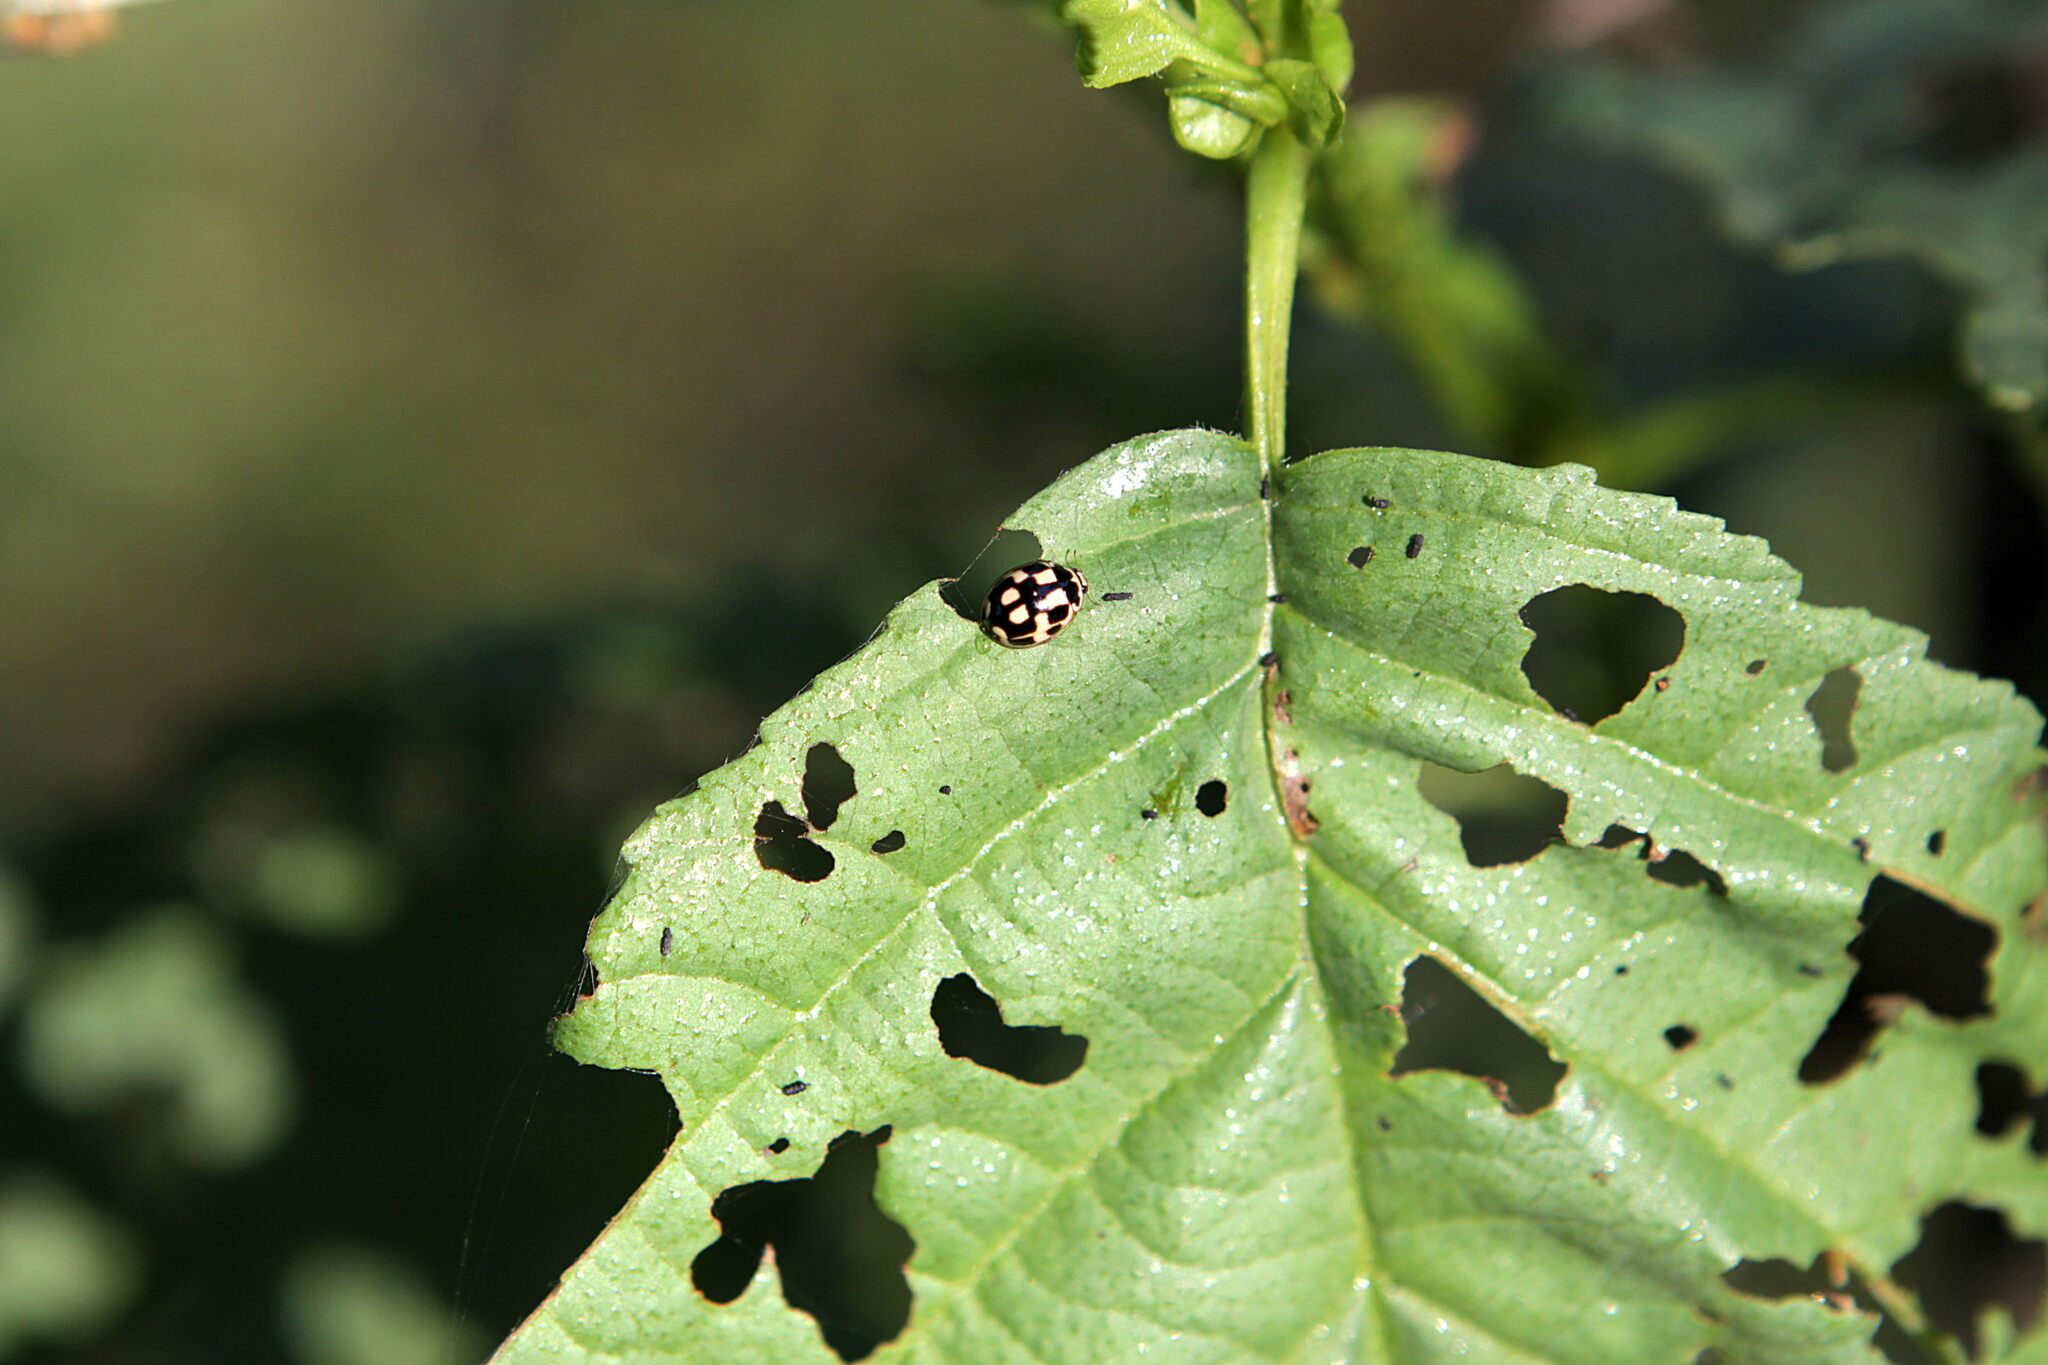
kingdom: Animalia
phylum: Arthropoda
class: Insecta
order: Coleoptera
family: Coccinellidae
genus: Propylaea
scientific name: Propylaea quatuordecimpunctata
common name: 14-spotted ladybird beetle
